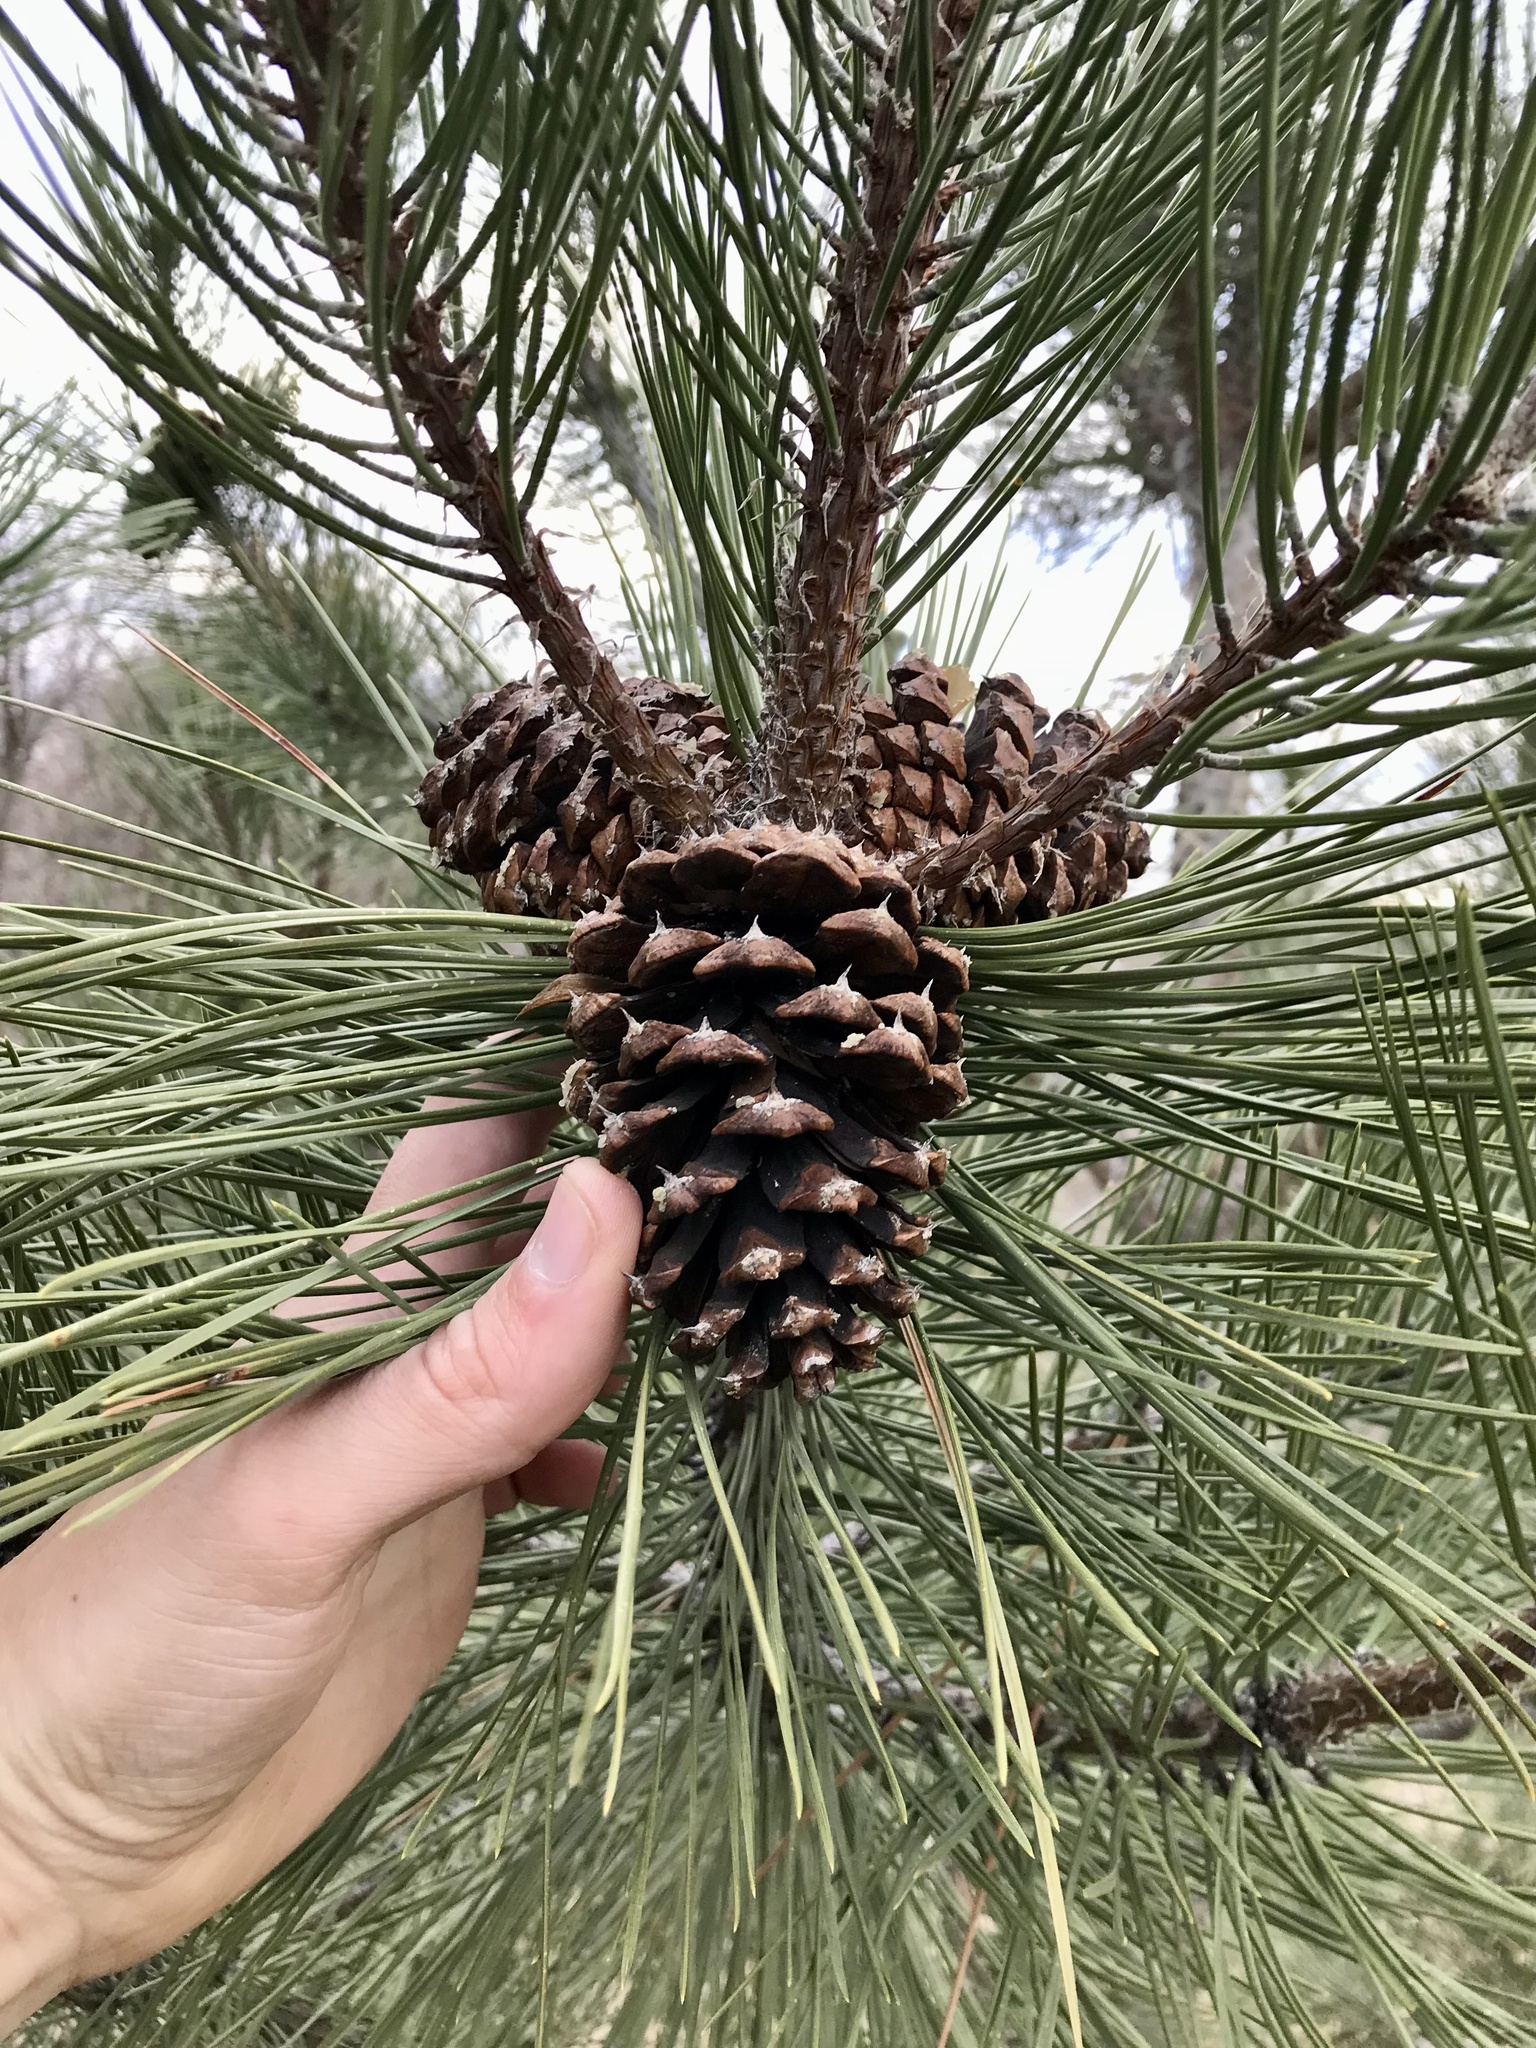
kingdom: Plantae
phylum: Tracheophyta
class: Pinopsida
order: Pinales
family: Pinaceae
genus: Pinus
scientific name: Pinus ponderosa
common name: Western yellow-pine
